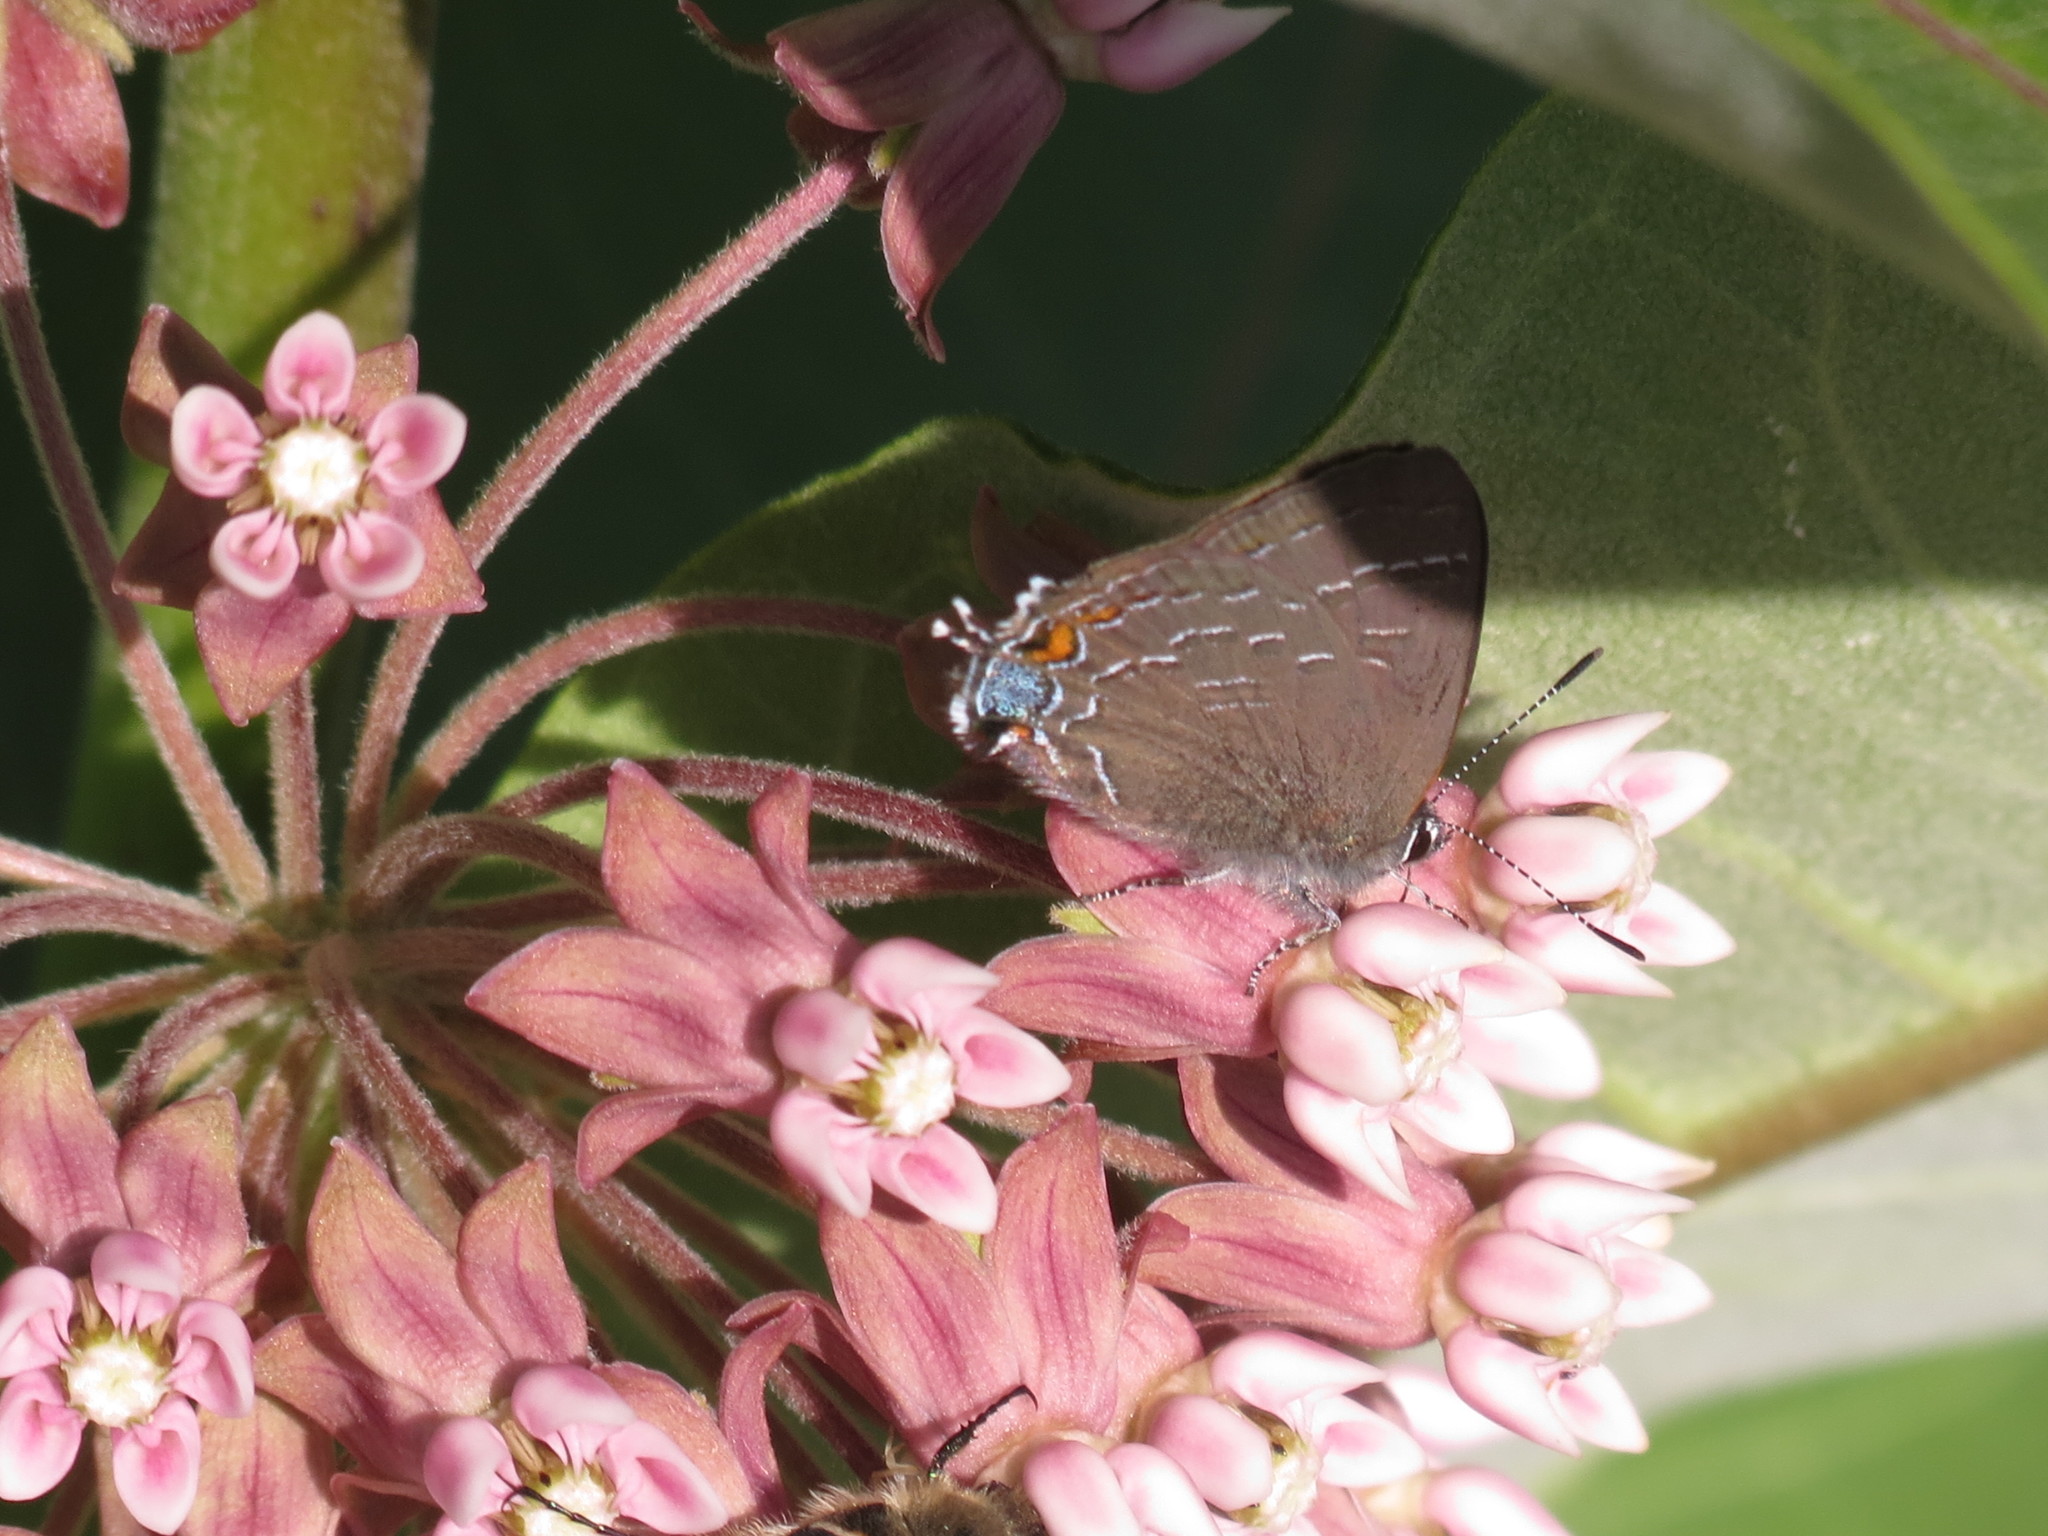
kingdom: Animalia
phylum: Arthropoda
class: Insecta
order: Lepidoptera
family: Lycaenidae
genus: Satyrium
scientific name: Satyrium calanus
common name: Banded hairstreak
